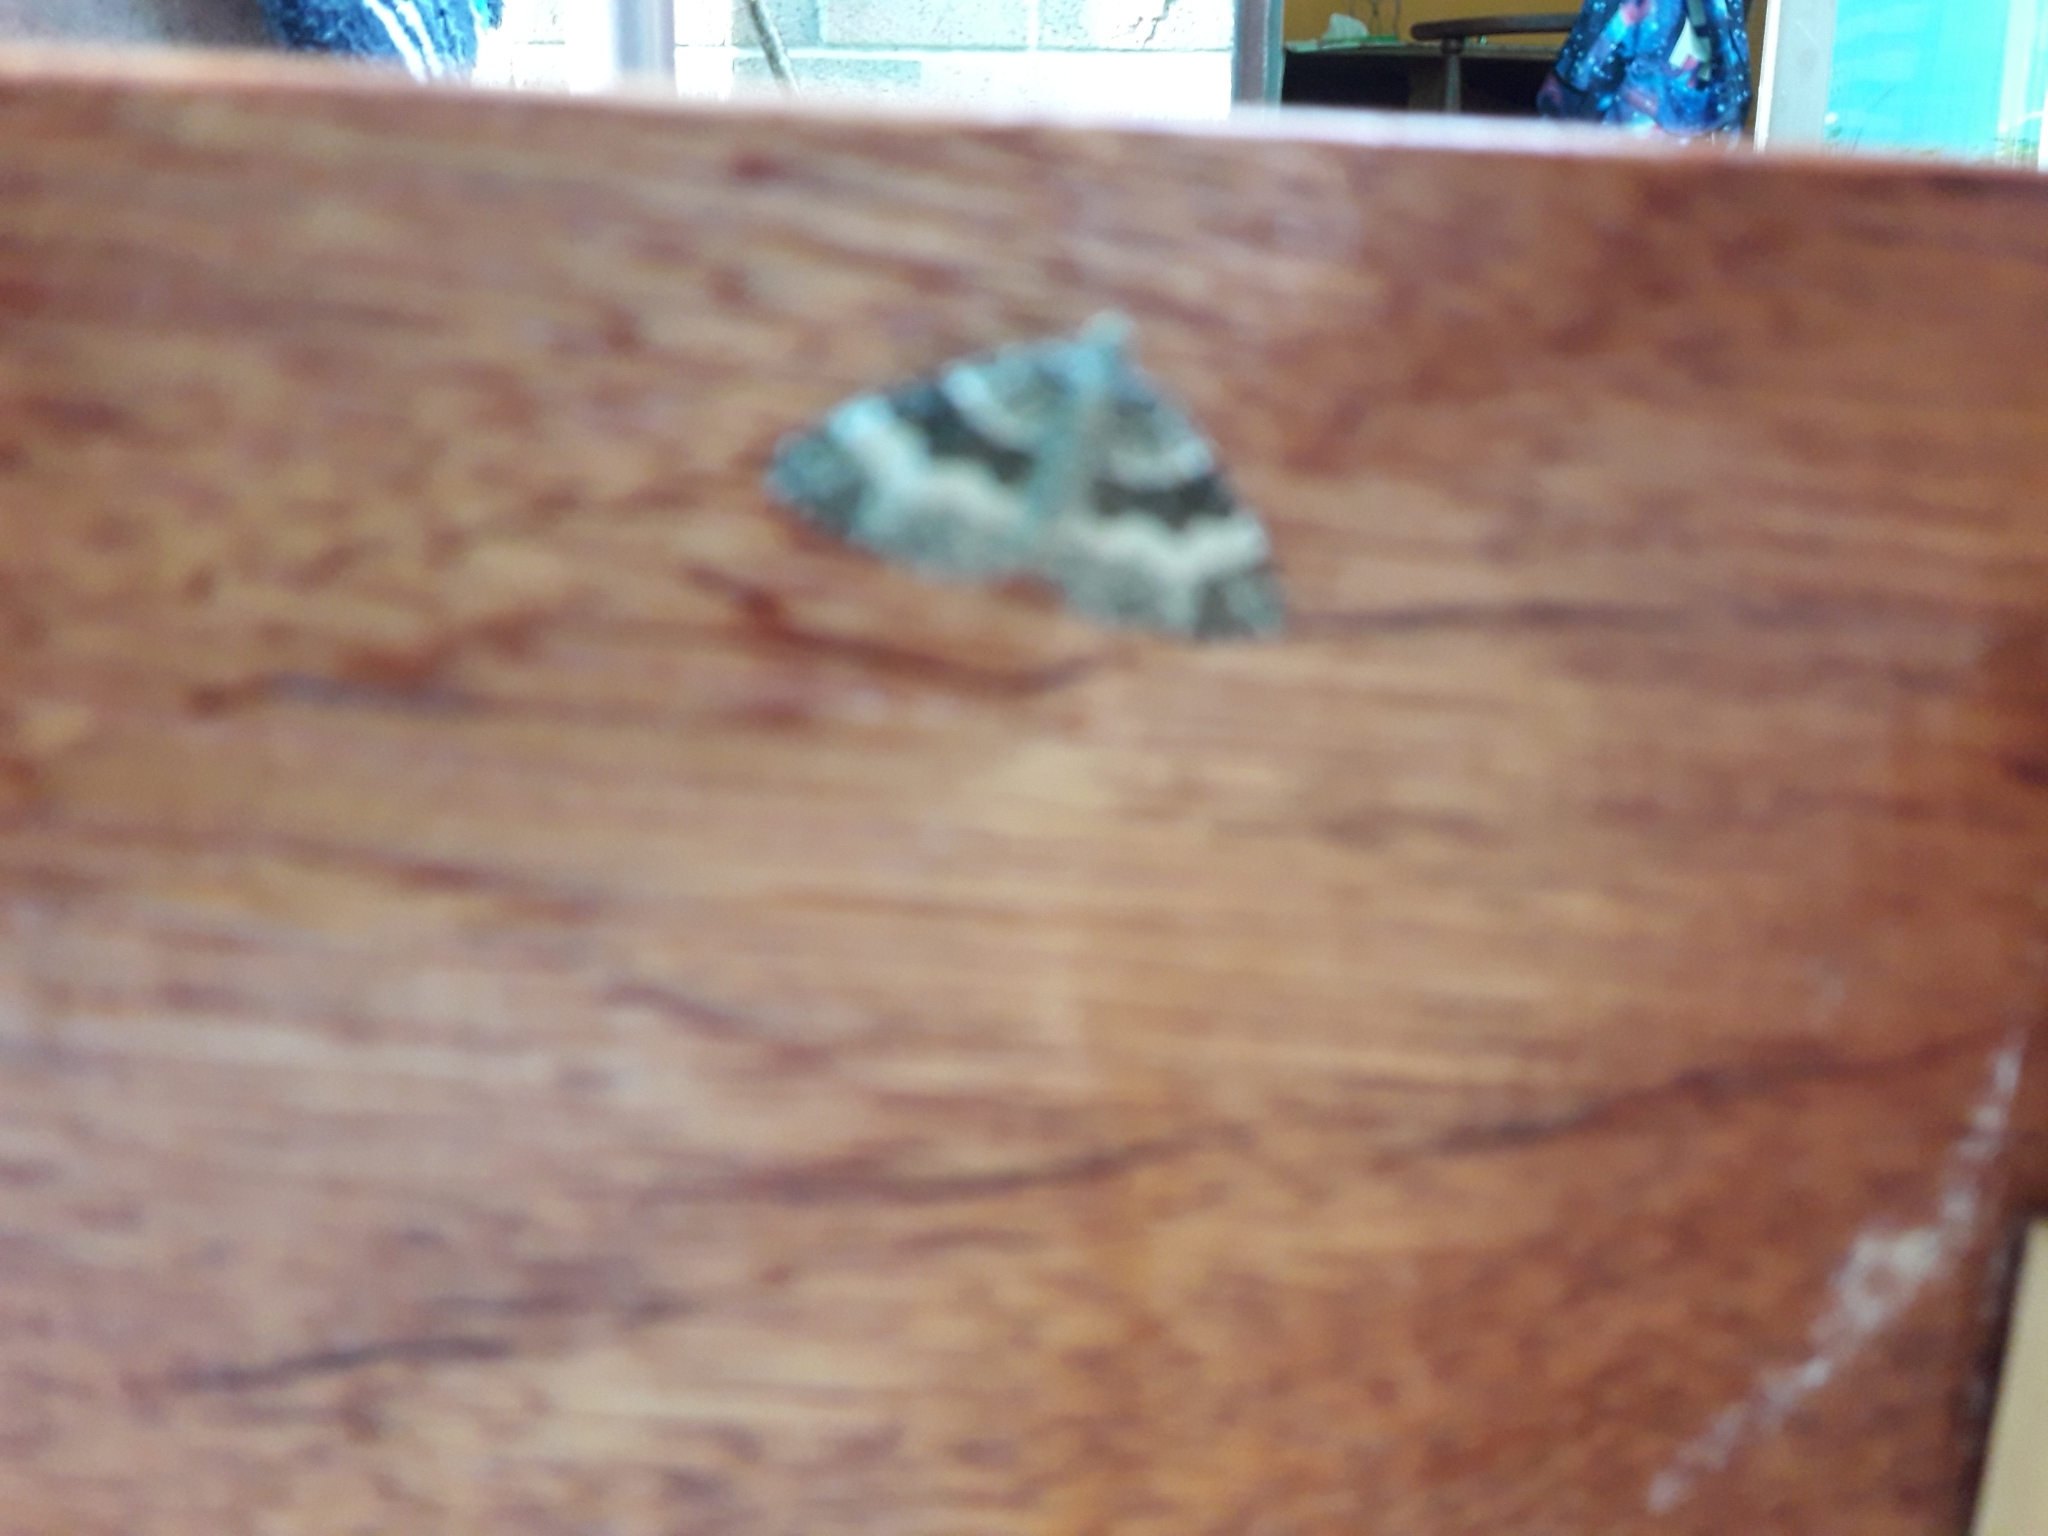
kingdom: Animalia
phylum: Arthropoda
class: Insecta
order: Lepidoptera
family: Geometridae
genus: Epirrhoe
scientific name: Epirrhoe alternata
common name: Common carpet
